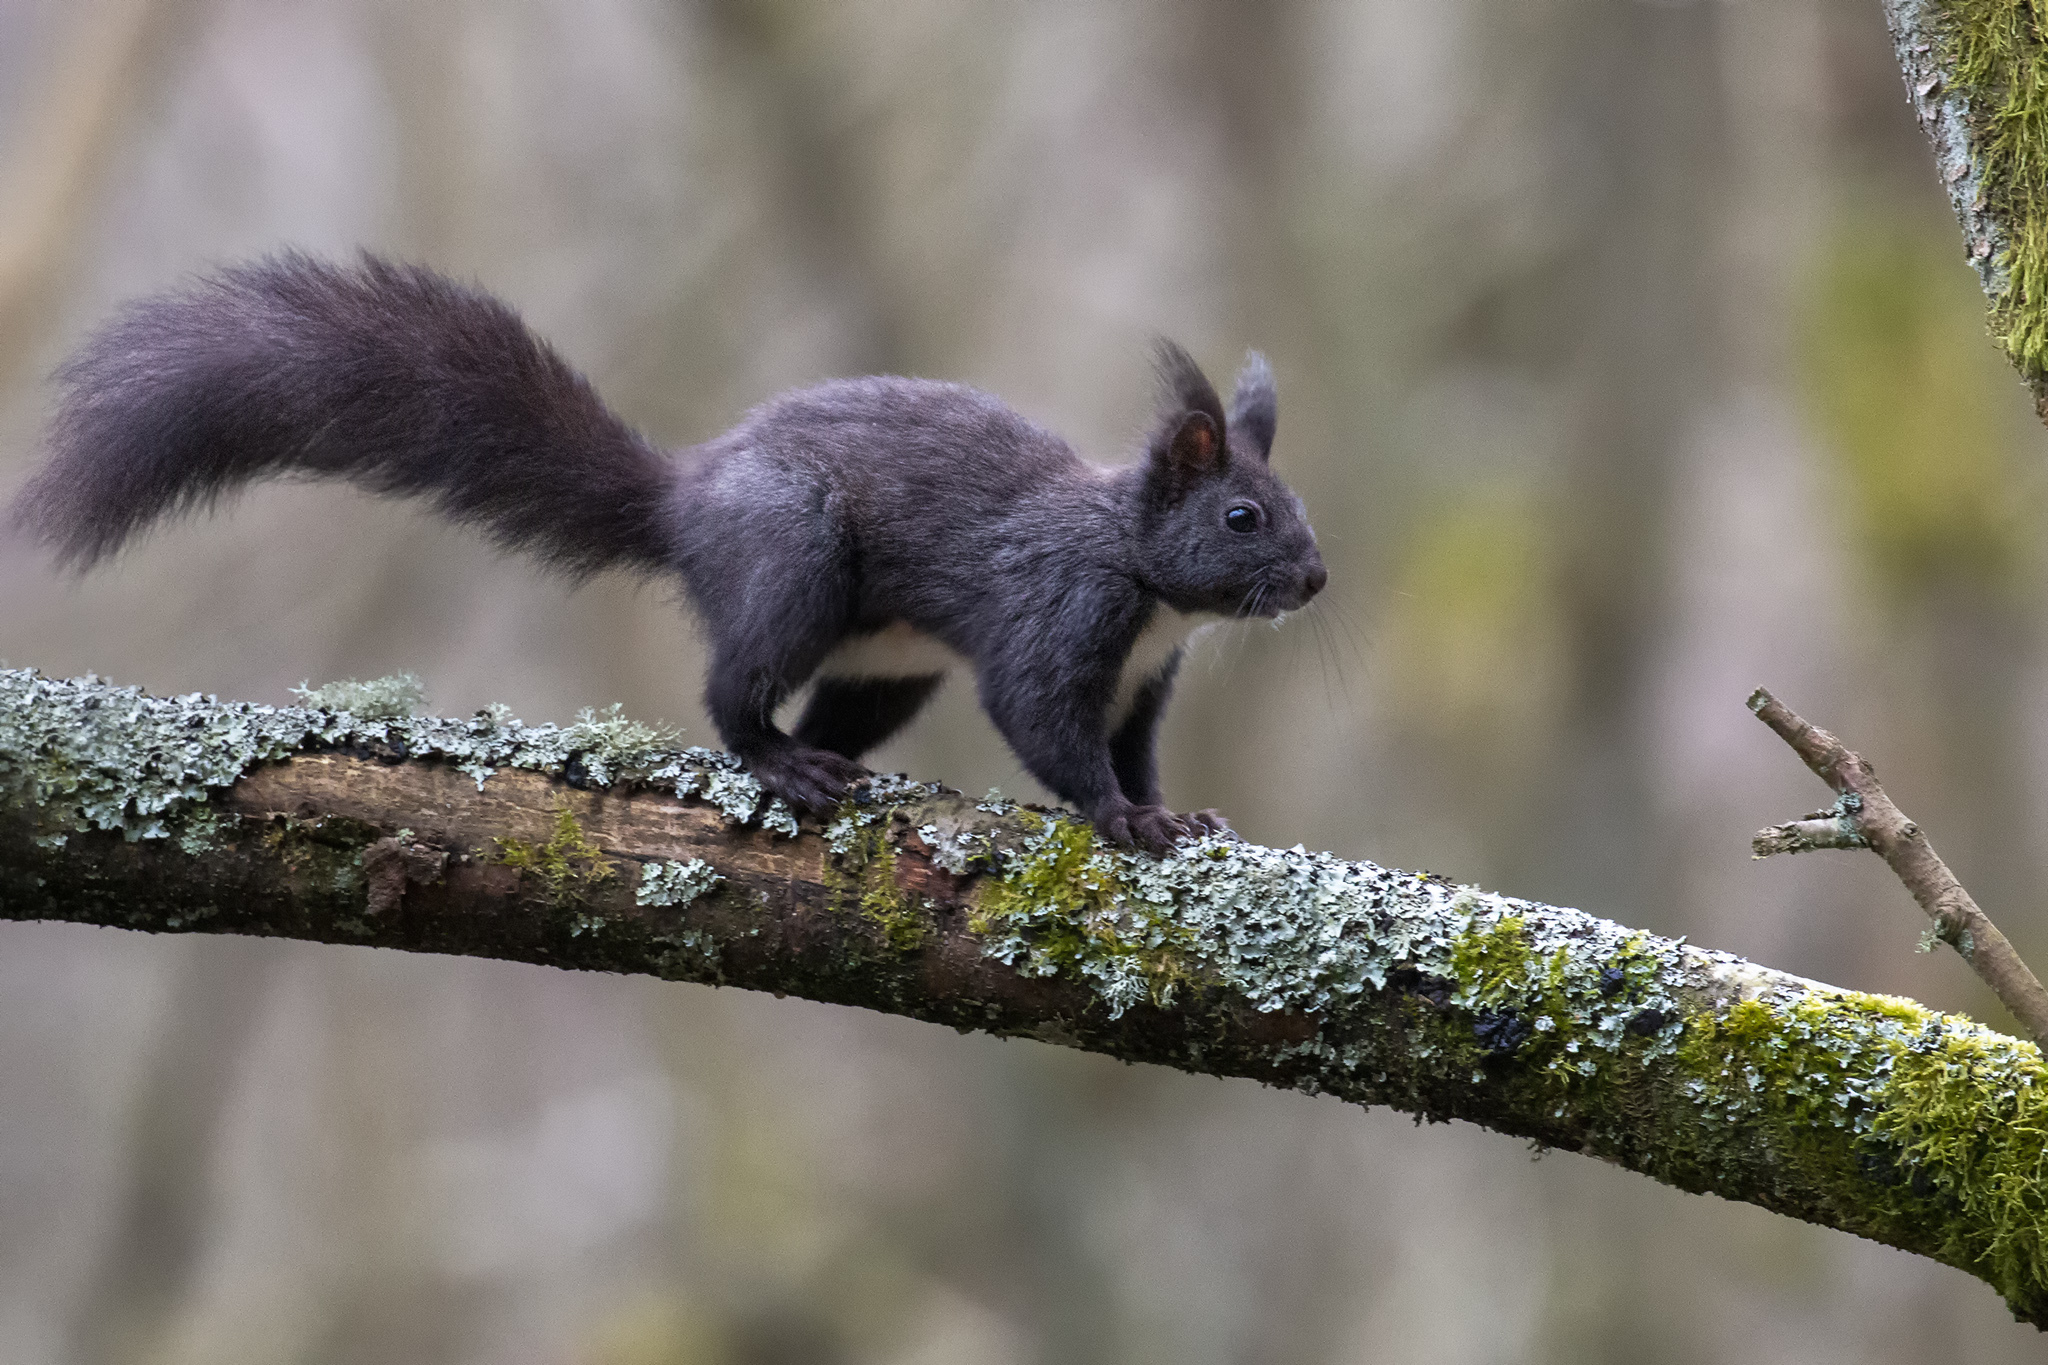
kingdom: Animalia
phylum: Chordata
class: Mammalia
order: Rodentia
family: Sciuridae
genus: Sciurus
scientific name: Sciurus vulgaris
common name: Eurasian red squirrel
